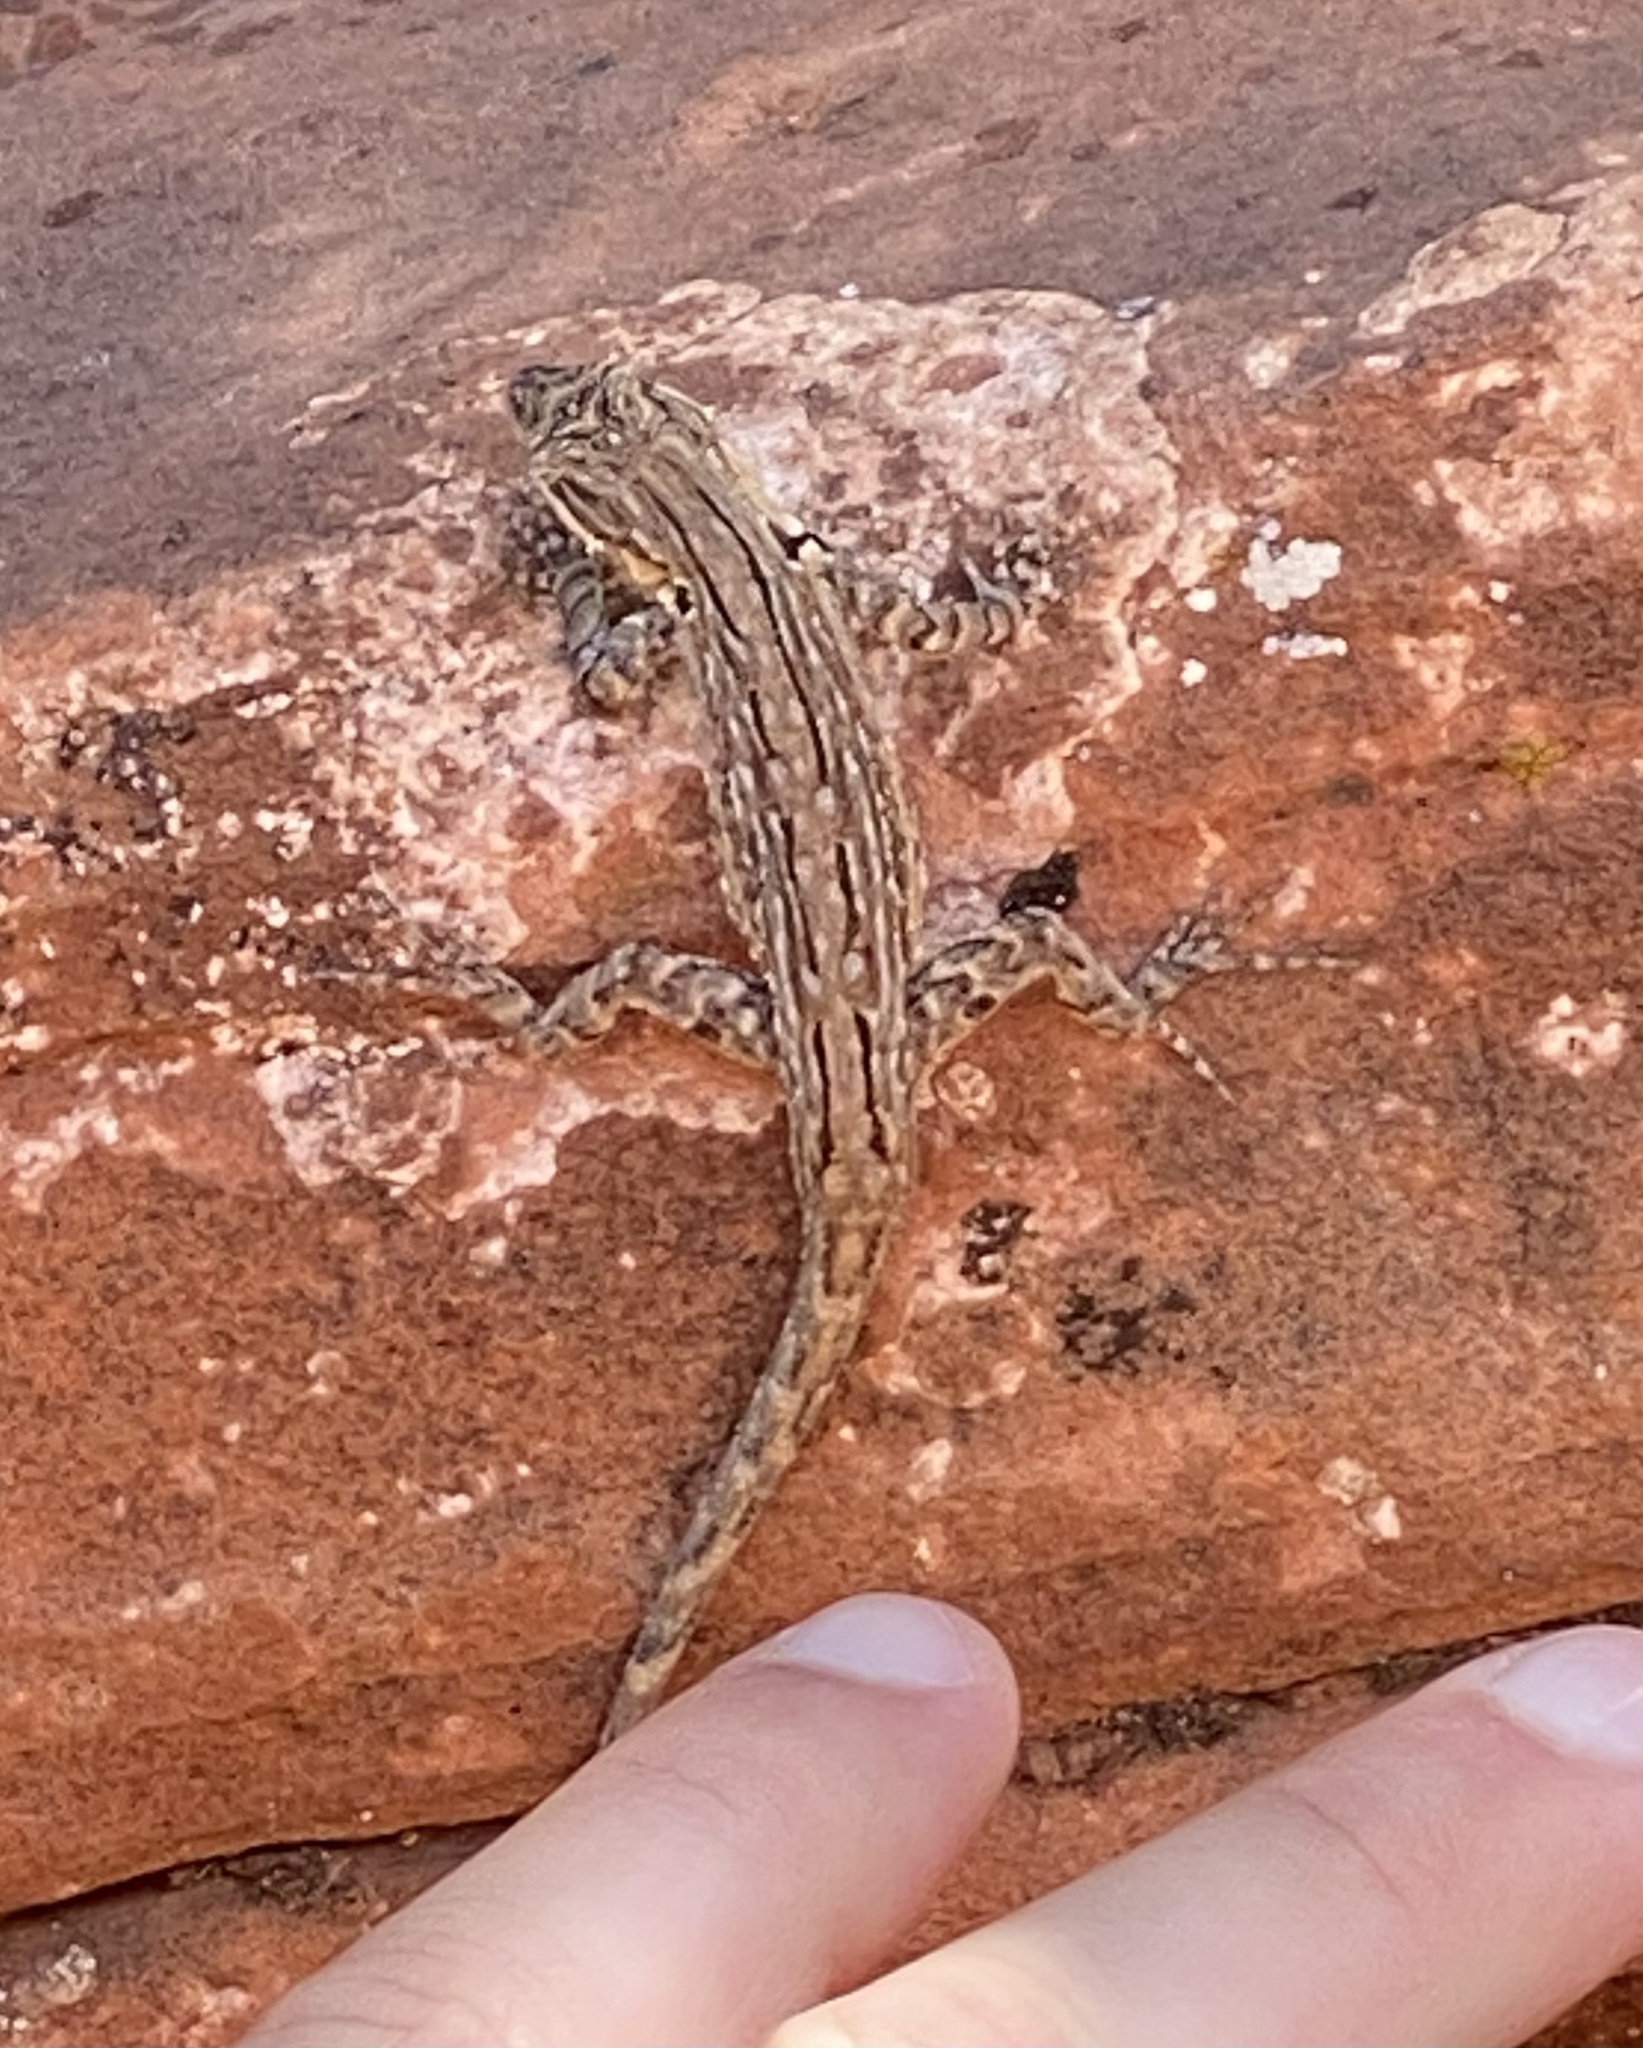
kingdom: Animalia
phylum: Chordata
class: Squamata
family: Phrynosomatidae
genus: Urosaurus
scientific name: Urosaurus ornatus
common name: Ornate tree lizard
